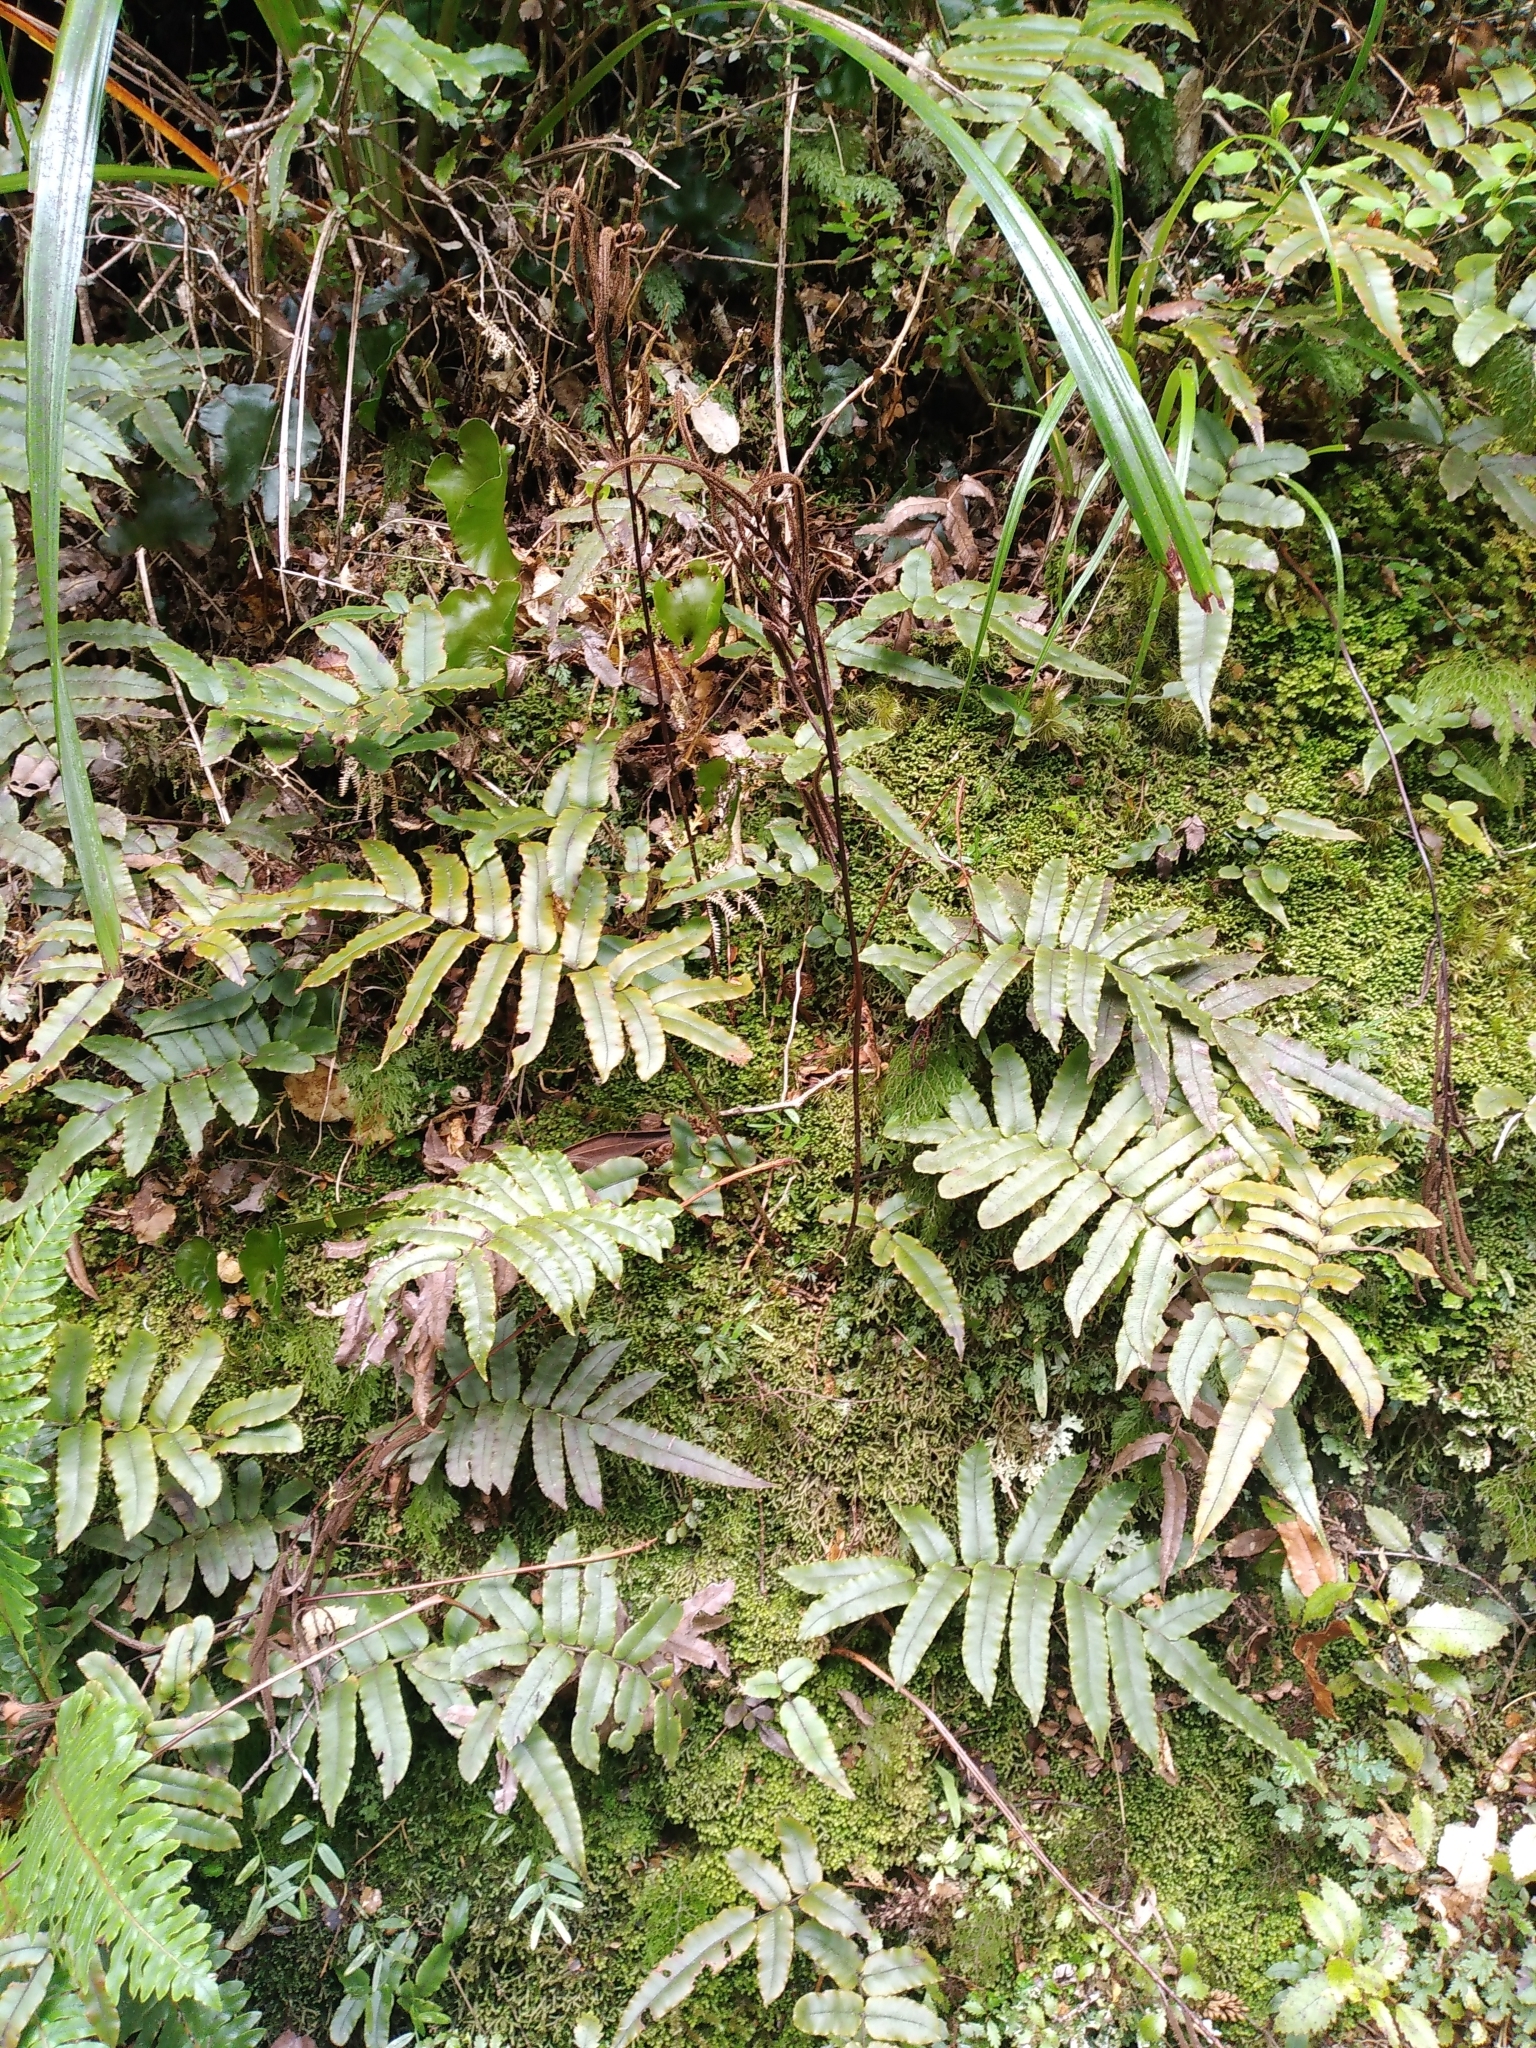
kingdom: Plantae
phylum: Tracheophyta
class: Polypodiopsida
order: Polypodiales
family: Blechnaceae
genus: Parablechnum
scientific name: Parablechnum procerum
